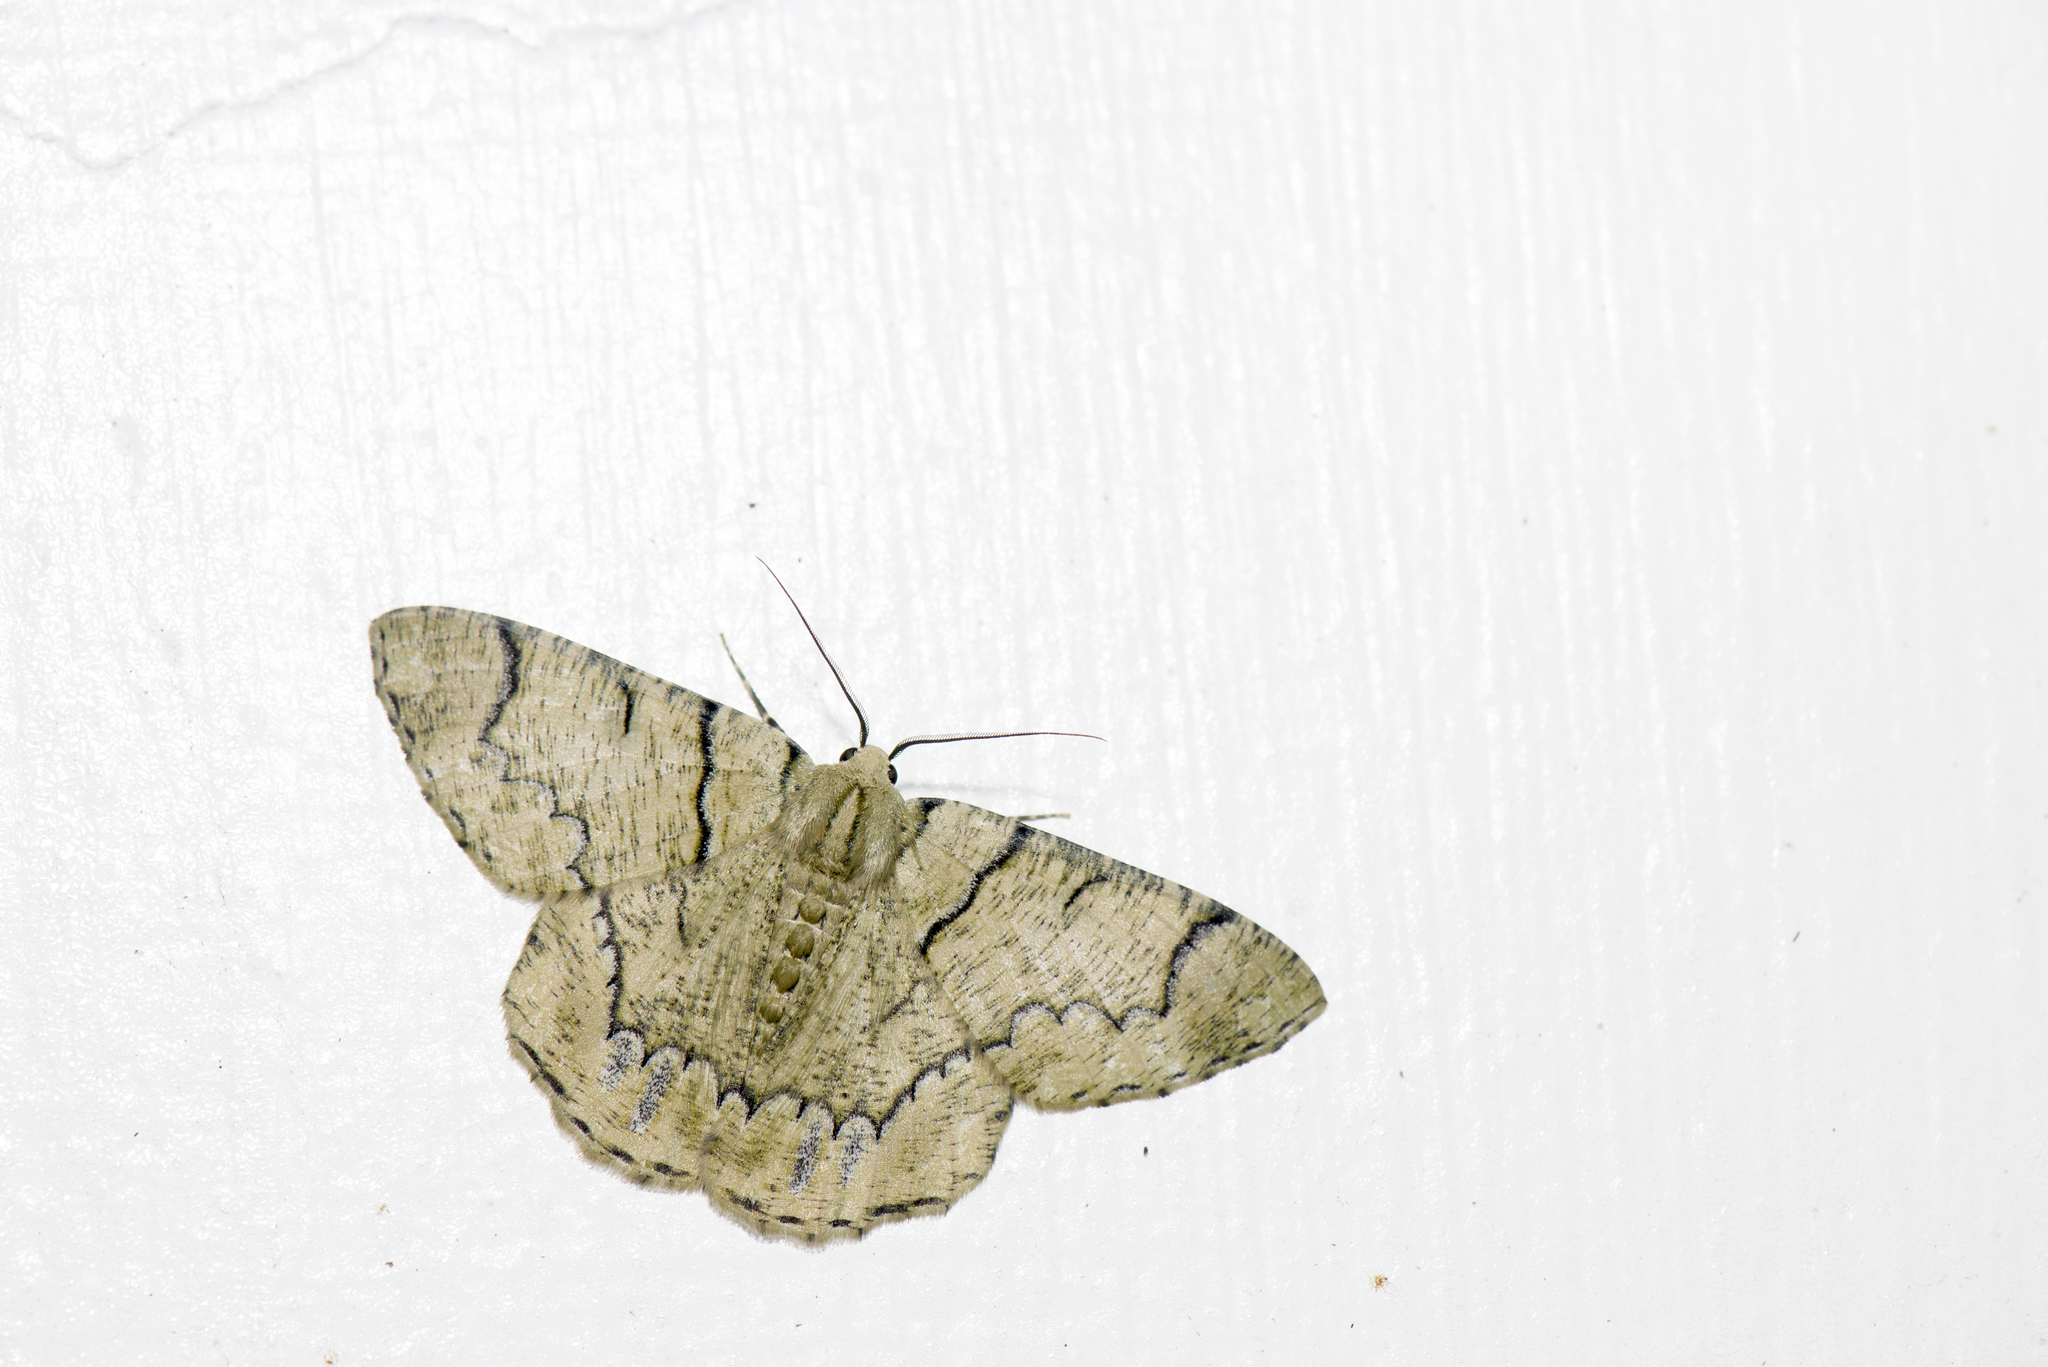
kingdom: Animalia
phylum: Arthropoda
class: Insecta
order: Lepidoptera
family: Geometridae
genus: Lophophelma
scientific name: Lophophelma iterans
